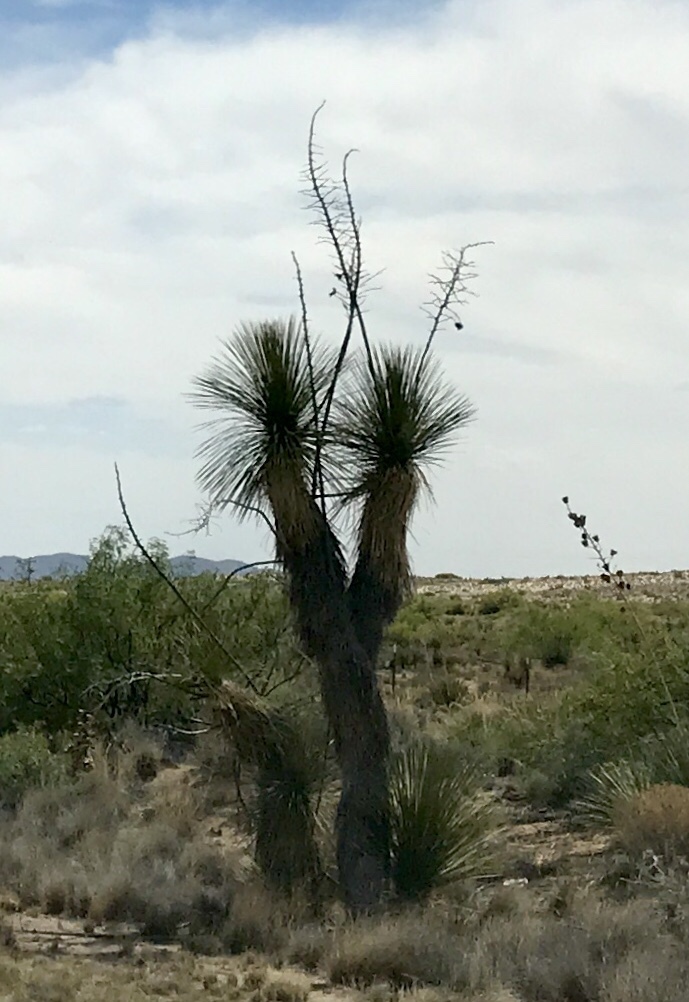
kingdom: Plantae
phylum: Tracheophyta
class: Liliopsida
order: Asparagales
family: Asparagaceae
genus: Yucca
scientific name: Yucca elata
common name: Palmella
